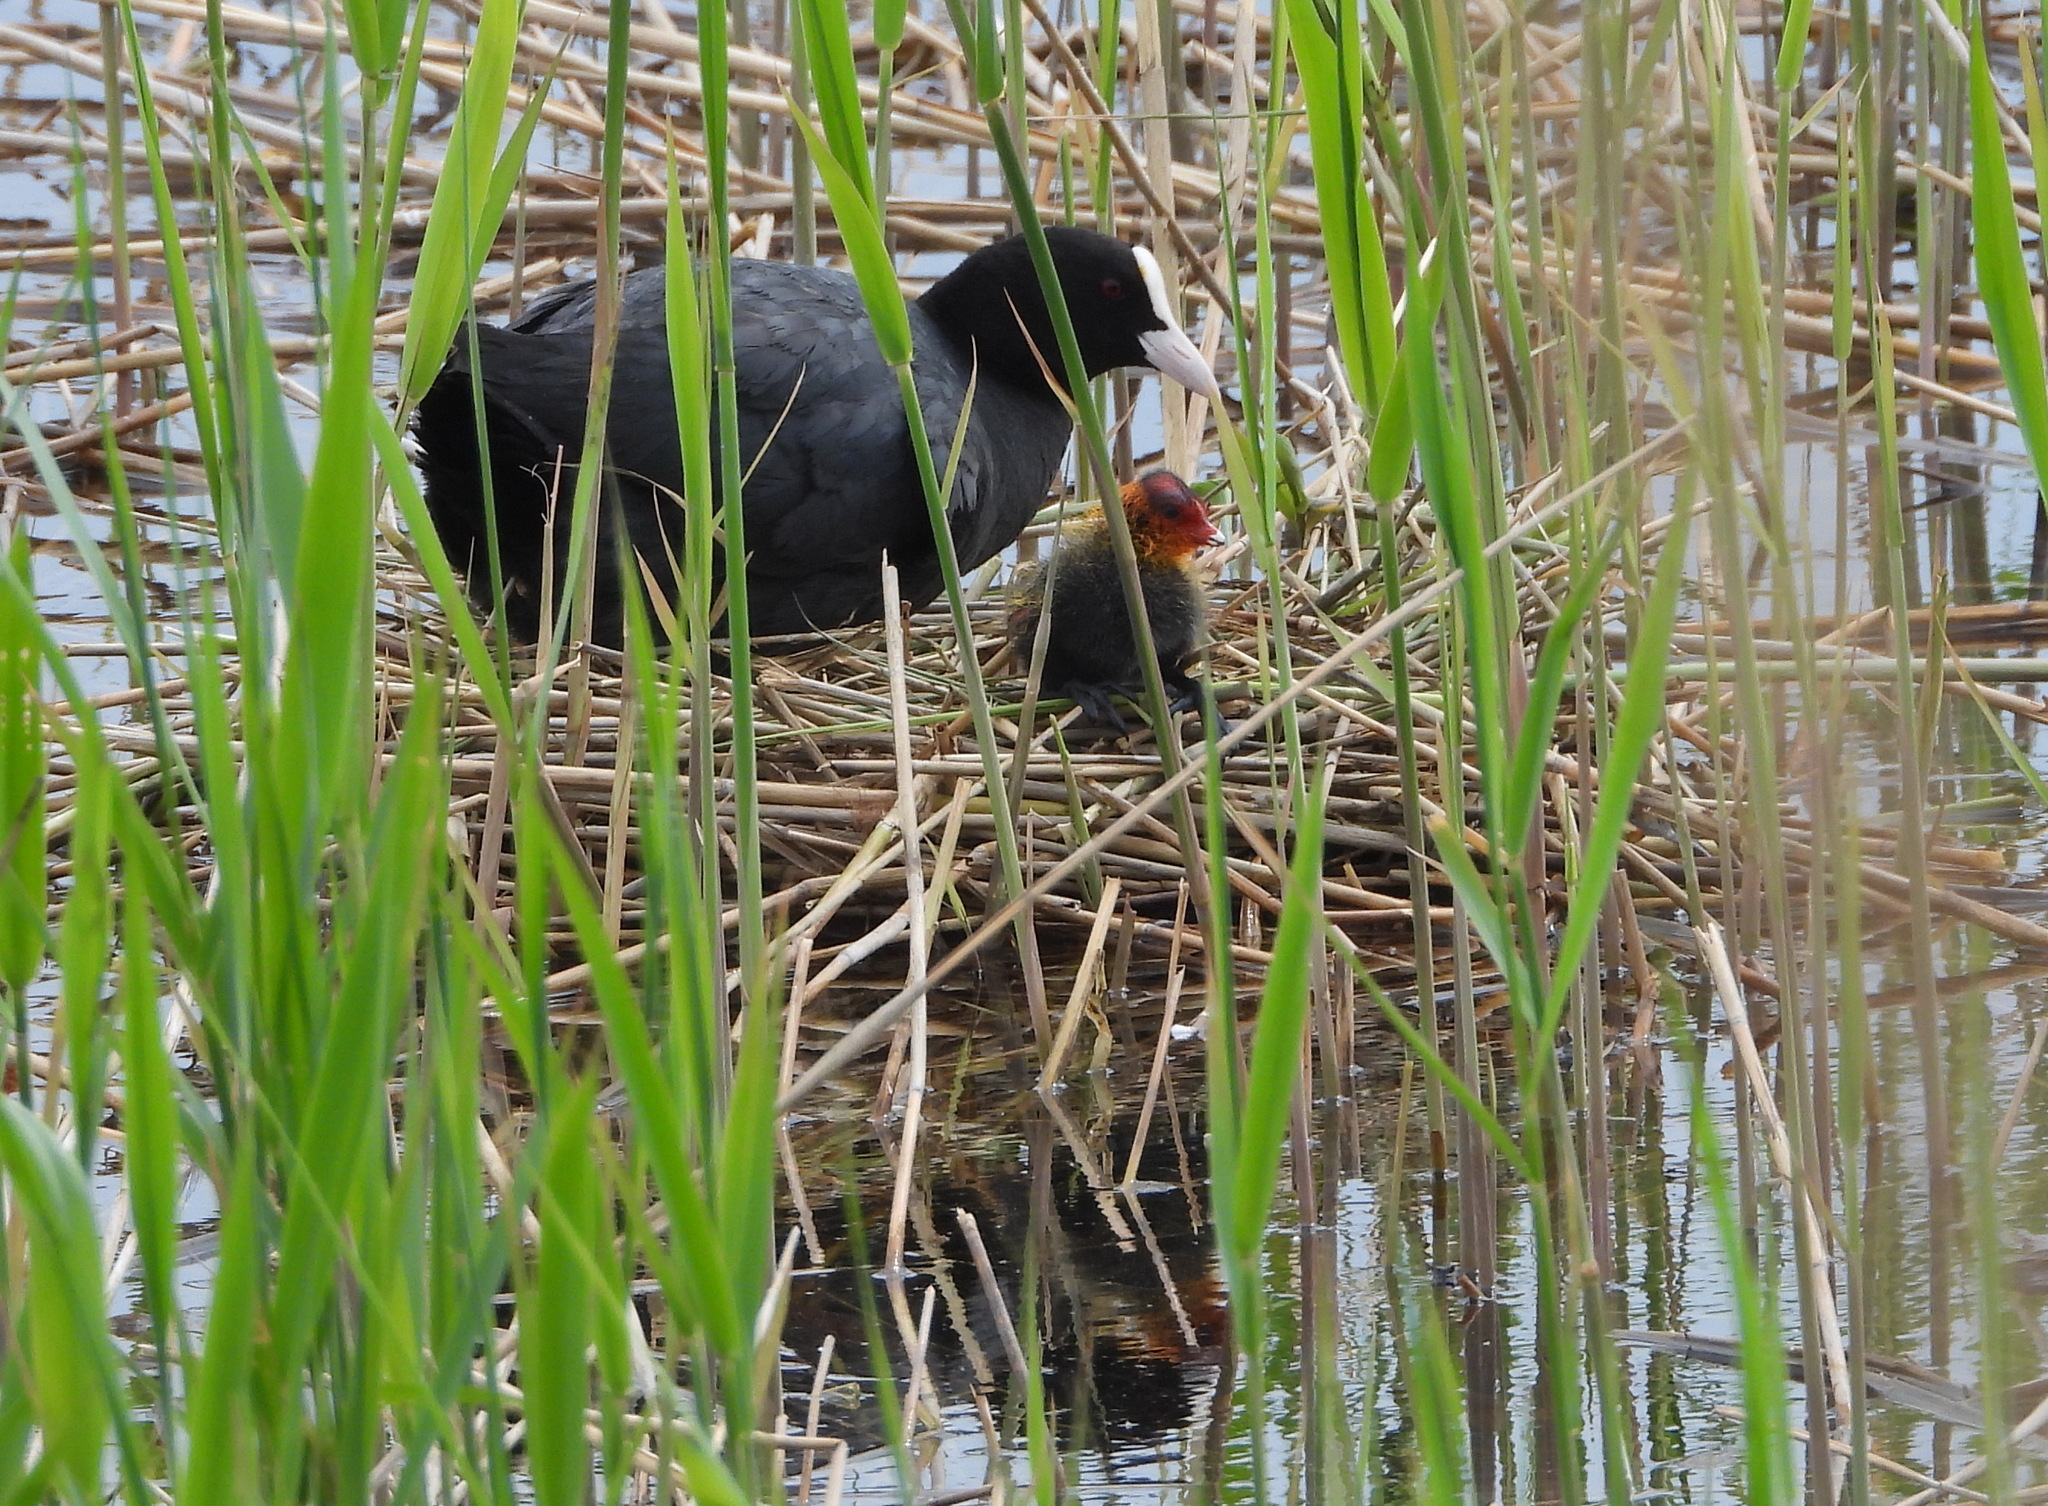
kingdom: Animalia
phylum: Chordata
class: Aves
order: Gruiformes
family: Rallidae
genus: Fulica
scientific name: Fulica atra
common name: Eurasian coot
